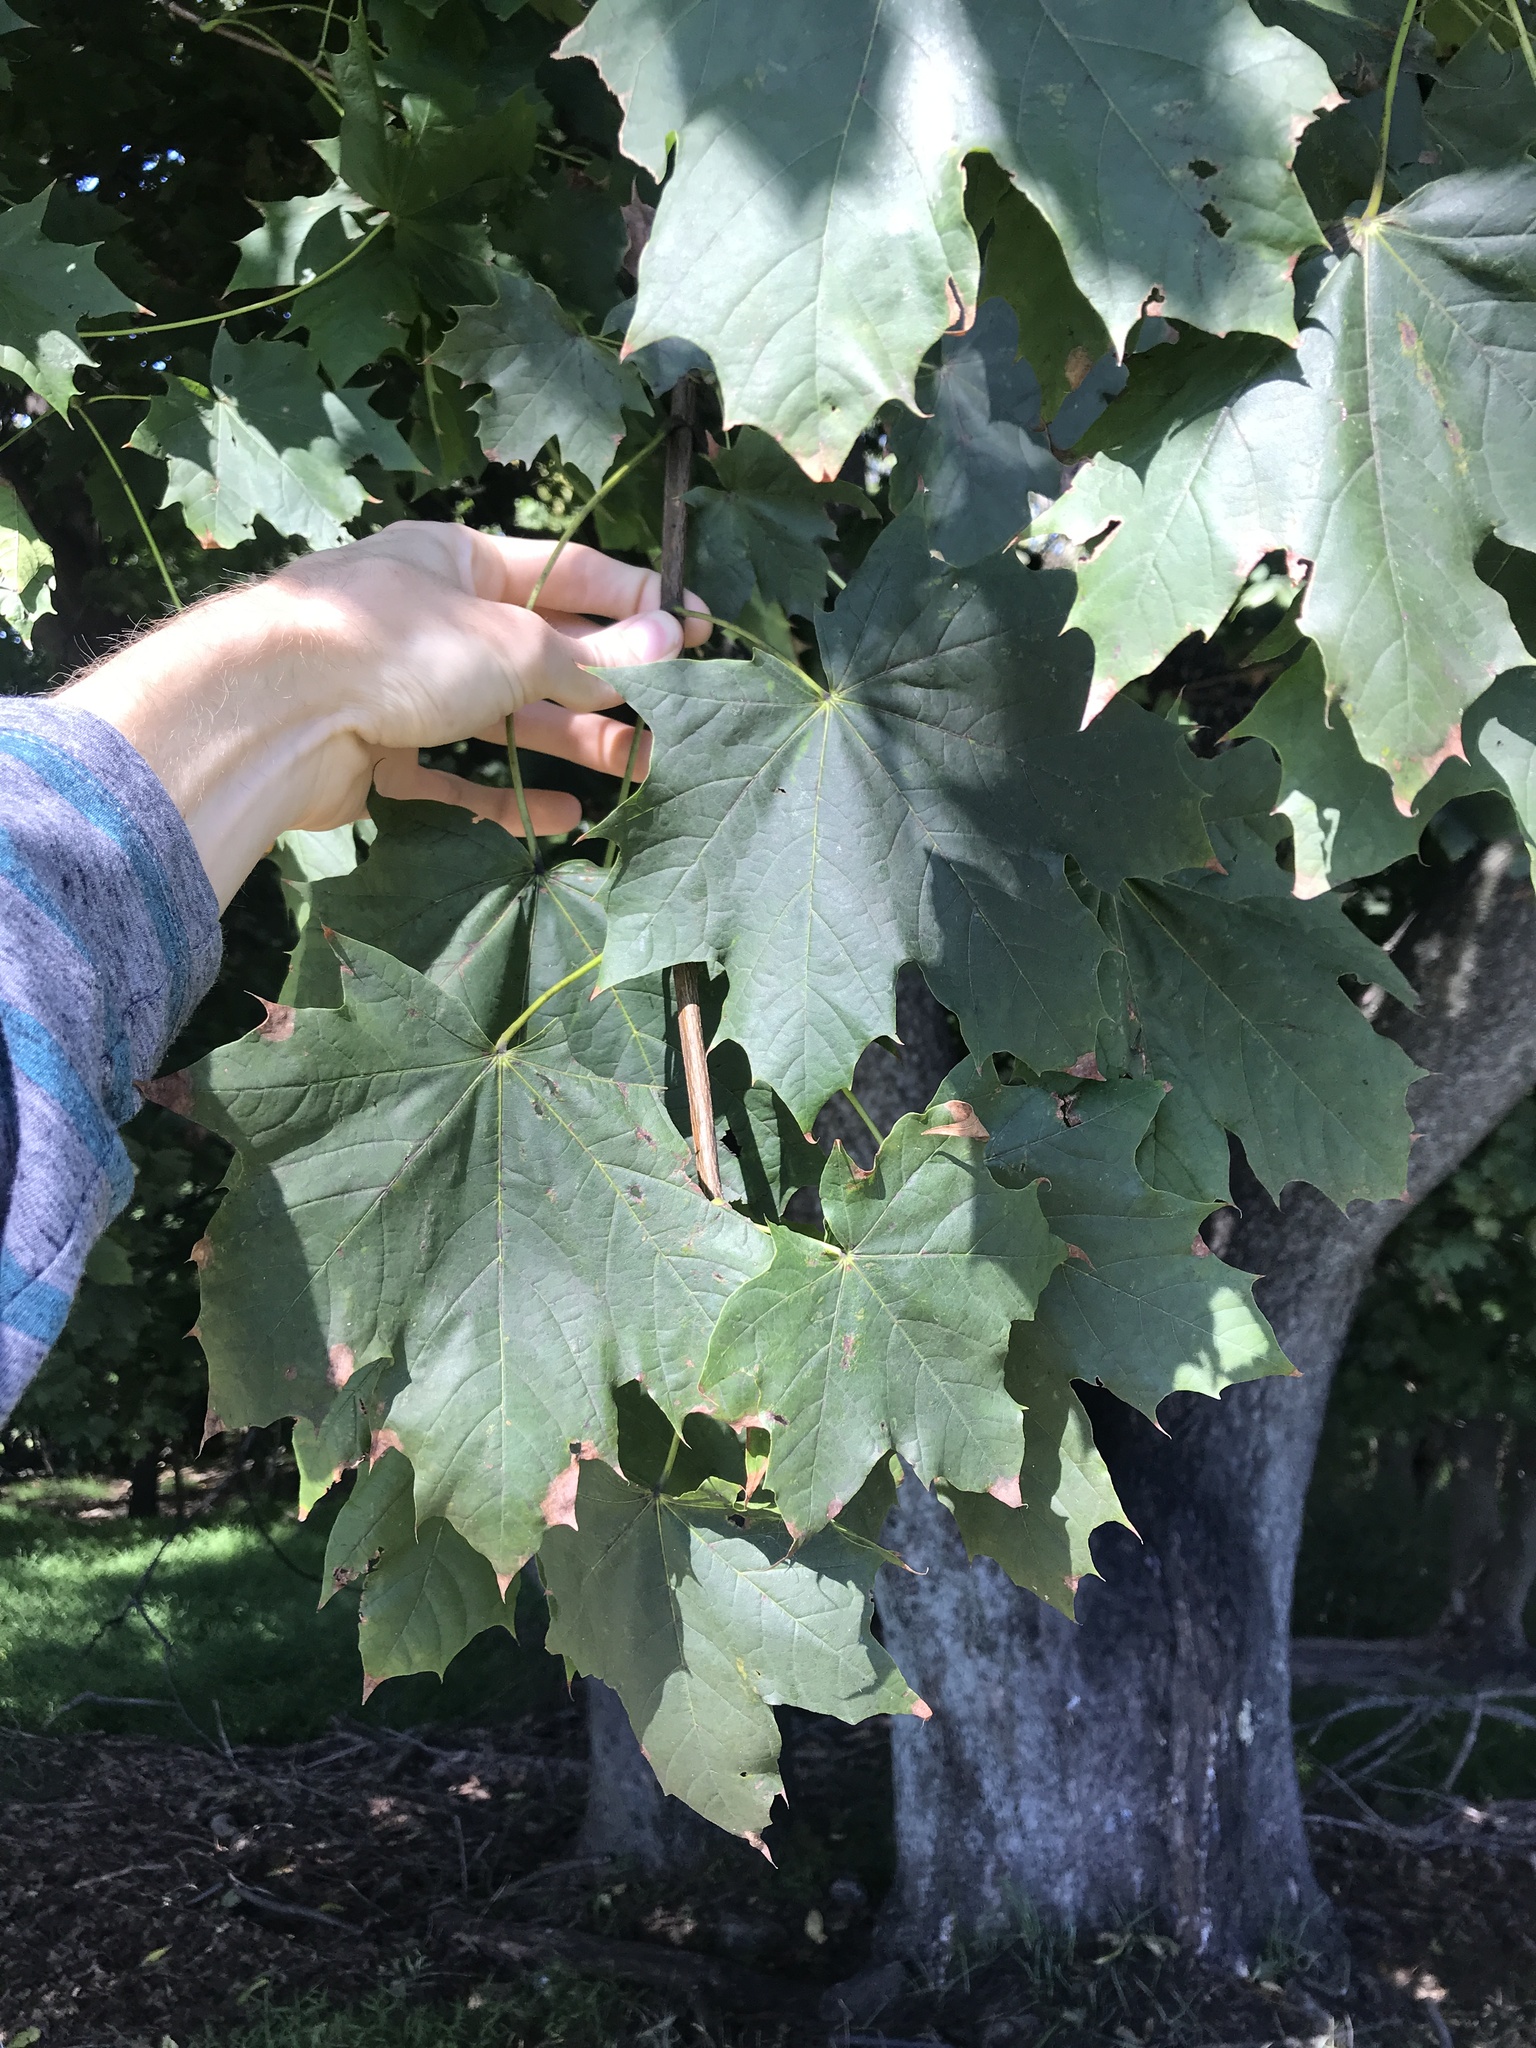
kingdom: Plantae
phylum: Tracheophyta
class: Magnoliopsida
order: Sapindales
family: Sapindaceae
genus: Acer
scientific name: Acer platanoides
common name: Norway maple
